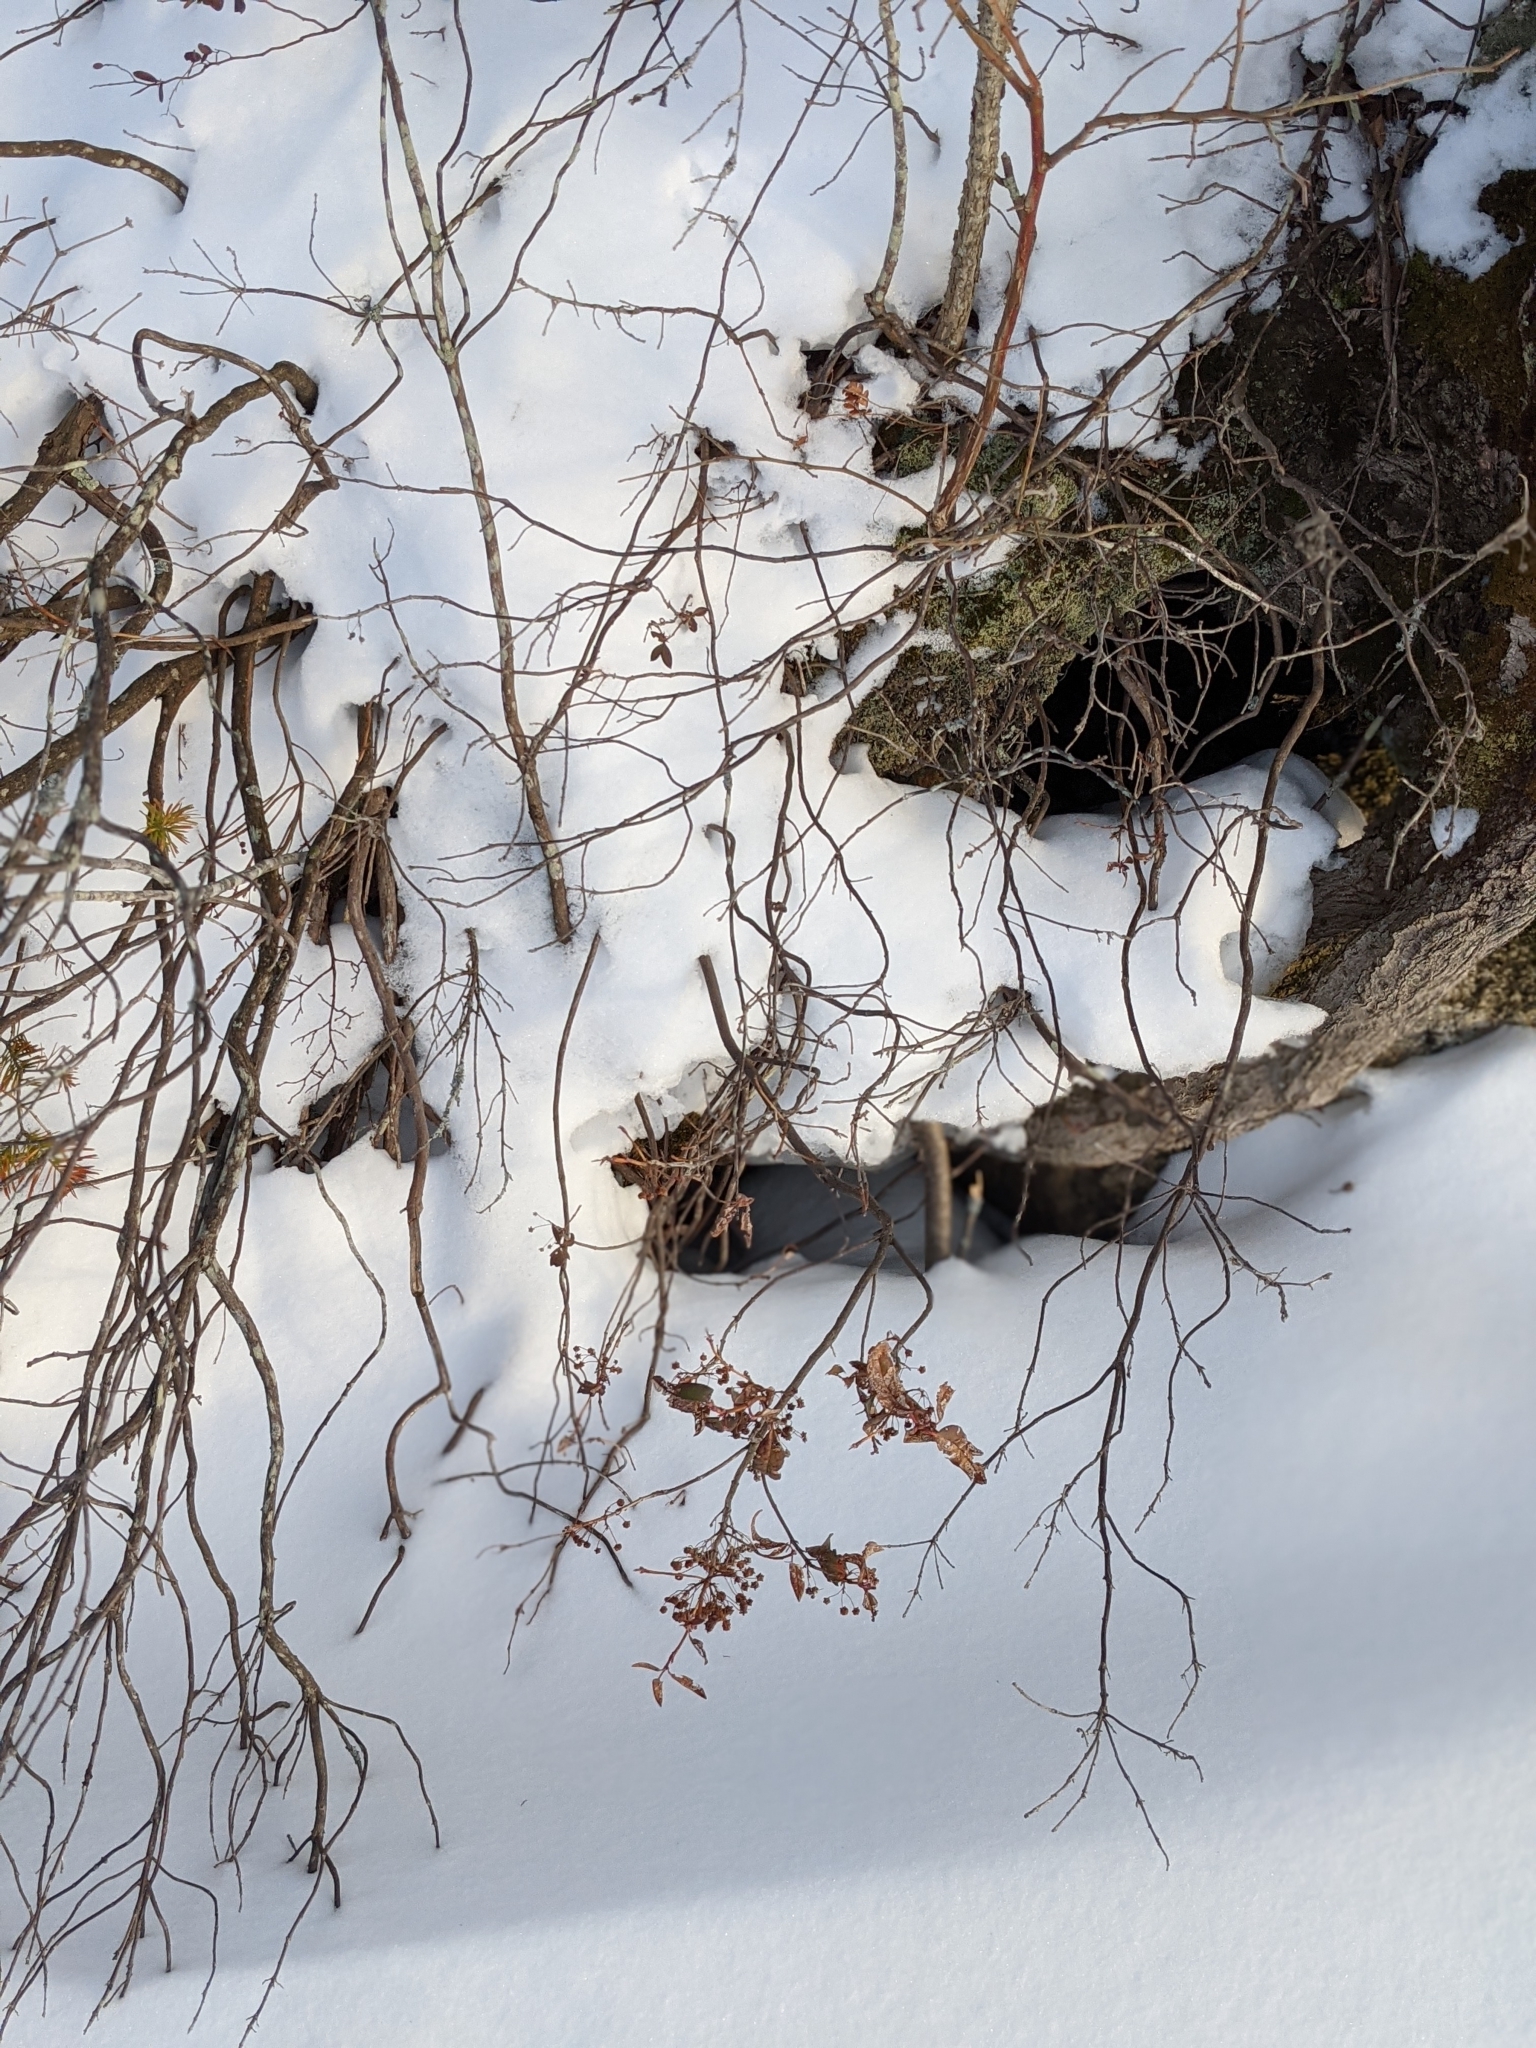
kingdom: Plantae
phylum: Tracheophyta
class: Magnoliopsida
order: Ericales
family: Ericaceae
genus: Kalmia
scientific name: Kalmia angustifolia
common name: Sheep-laurel
